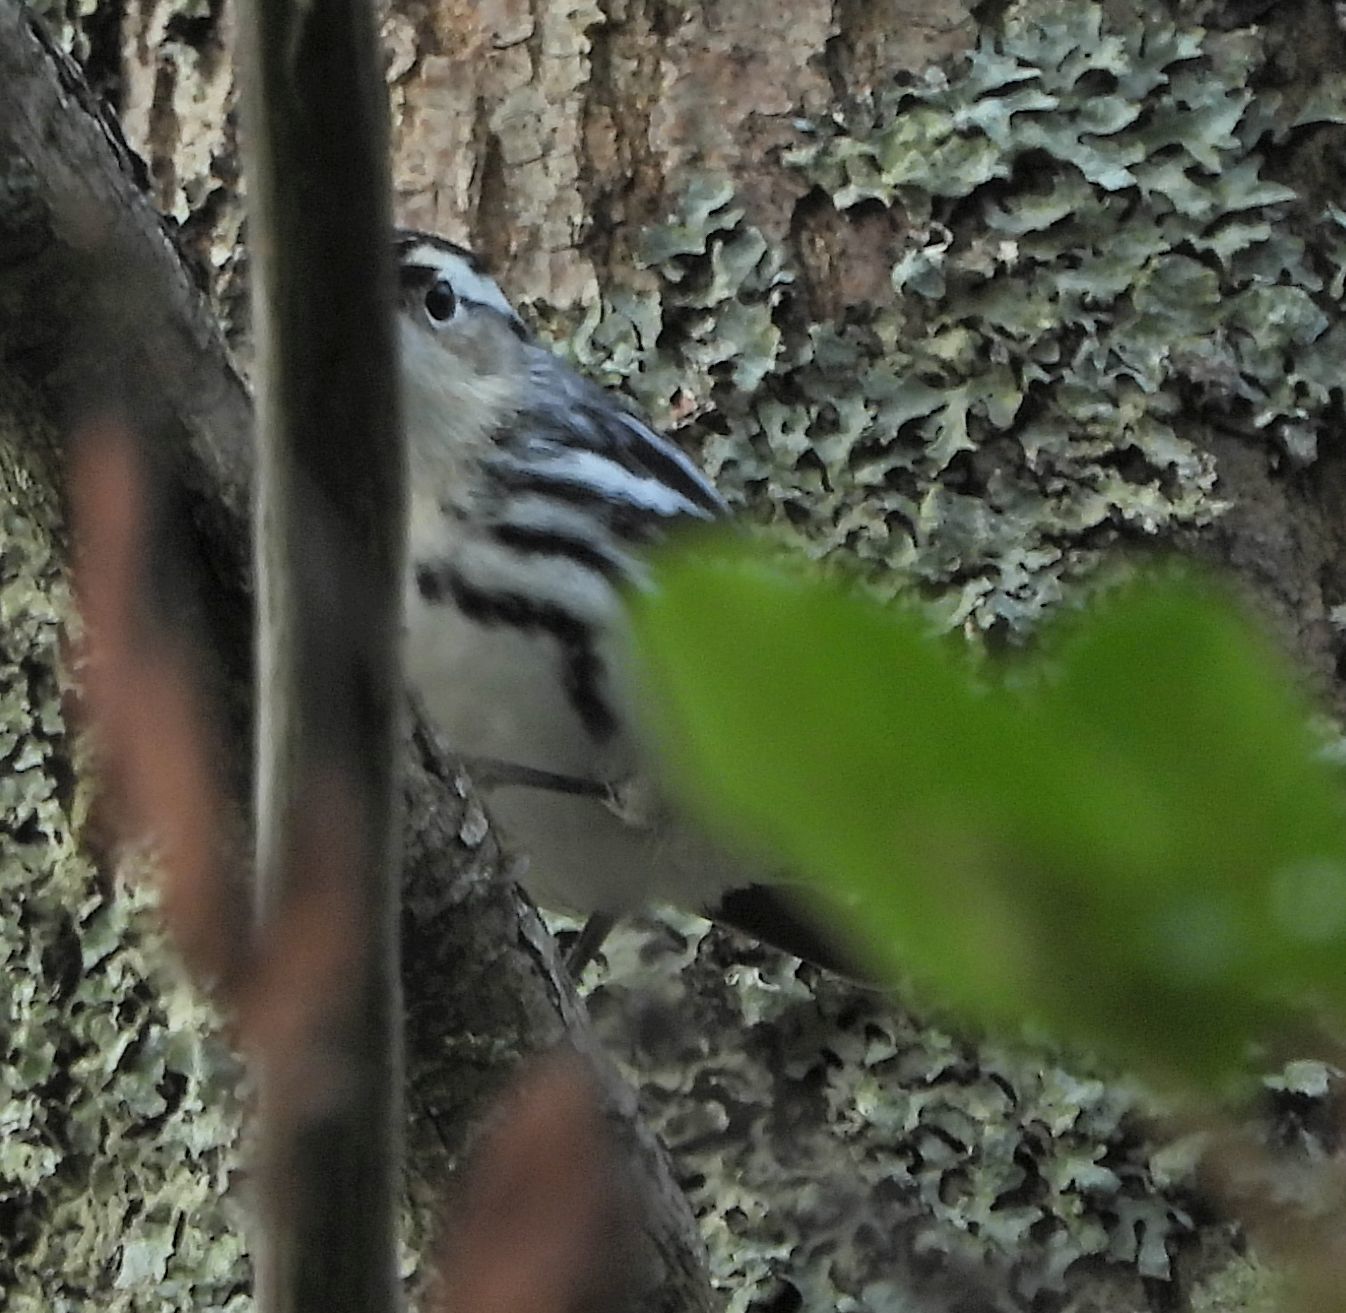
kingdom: Animalia
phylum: Chordata
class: Aves
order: Passeriformes
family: Parulidae
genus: Mniotilta
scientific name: Mniotilta varia
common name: Black-and-white warbler
